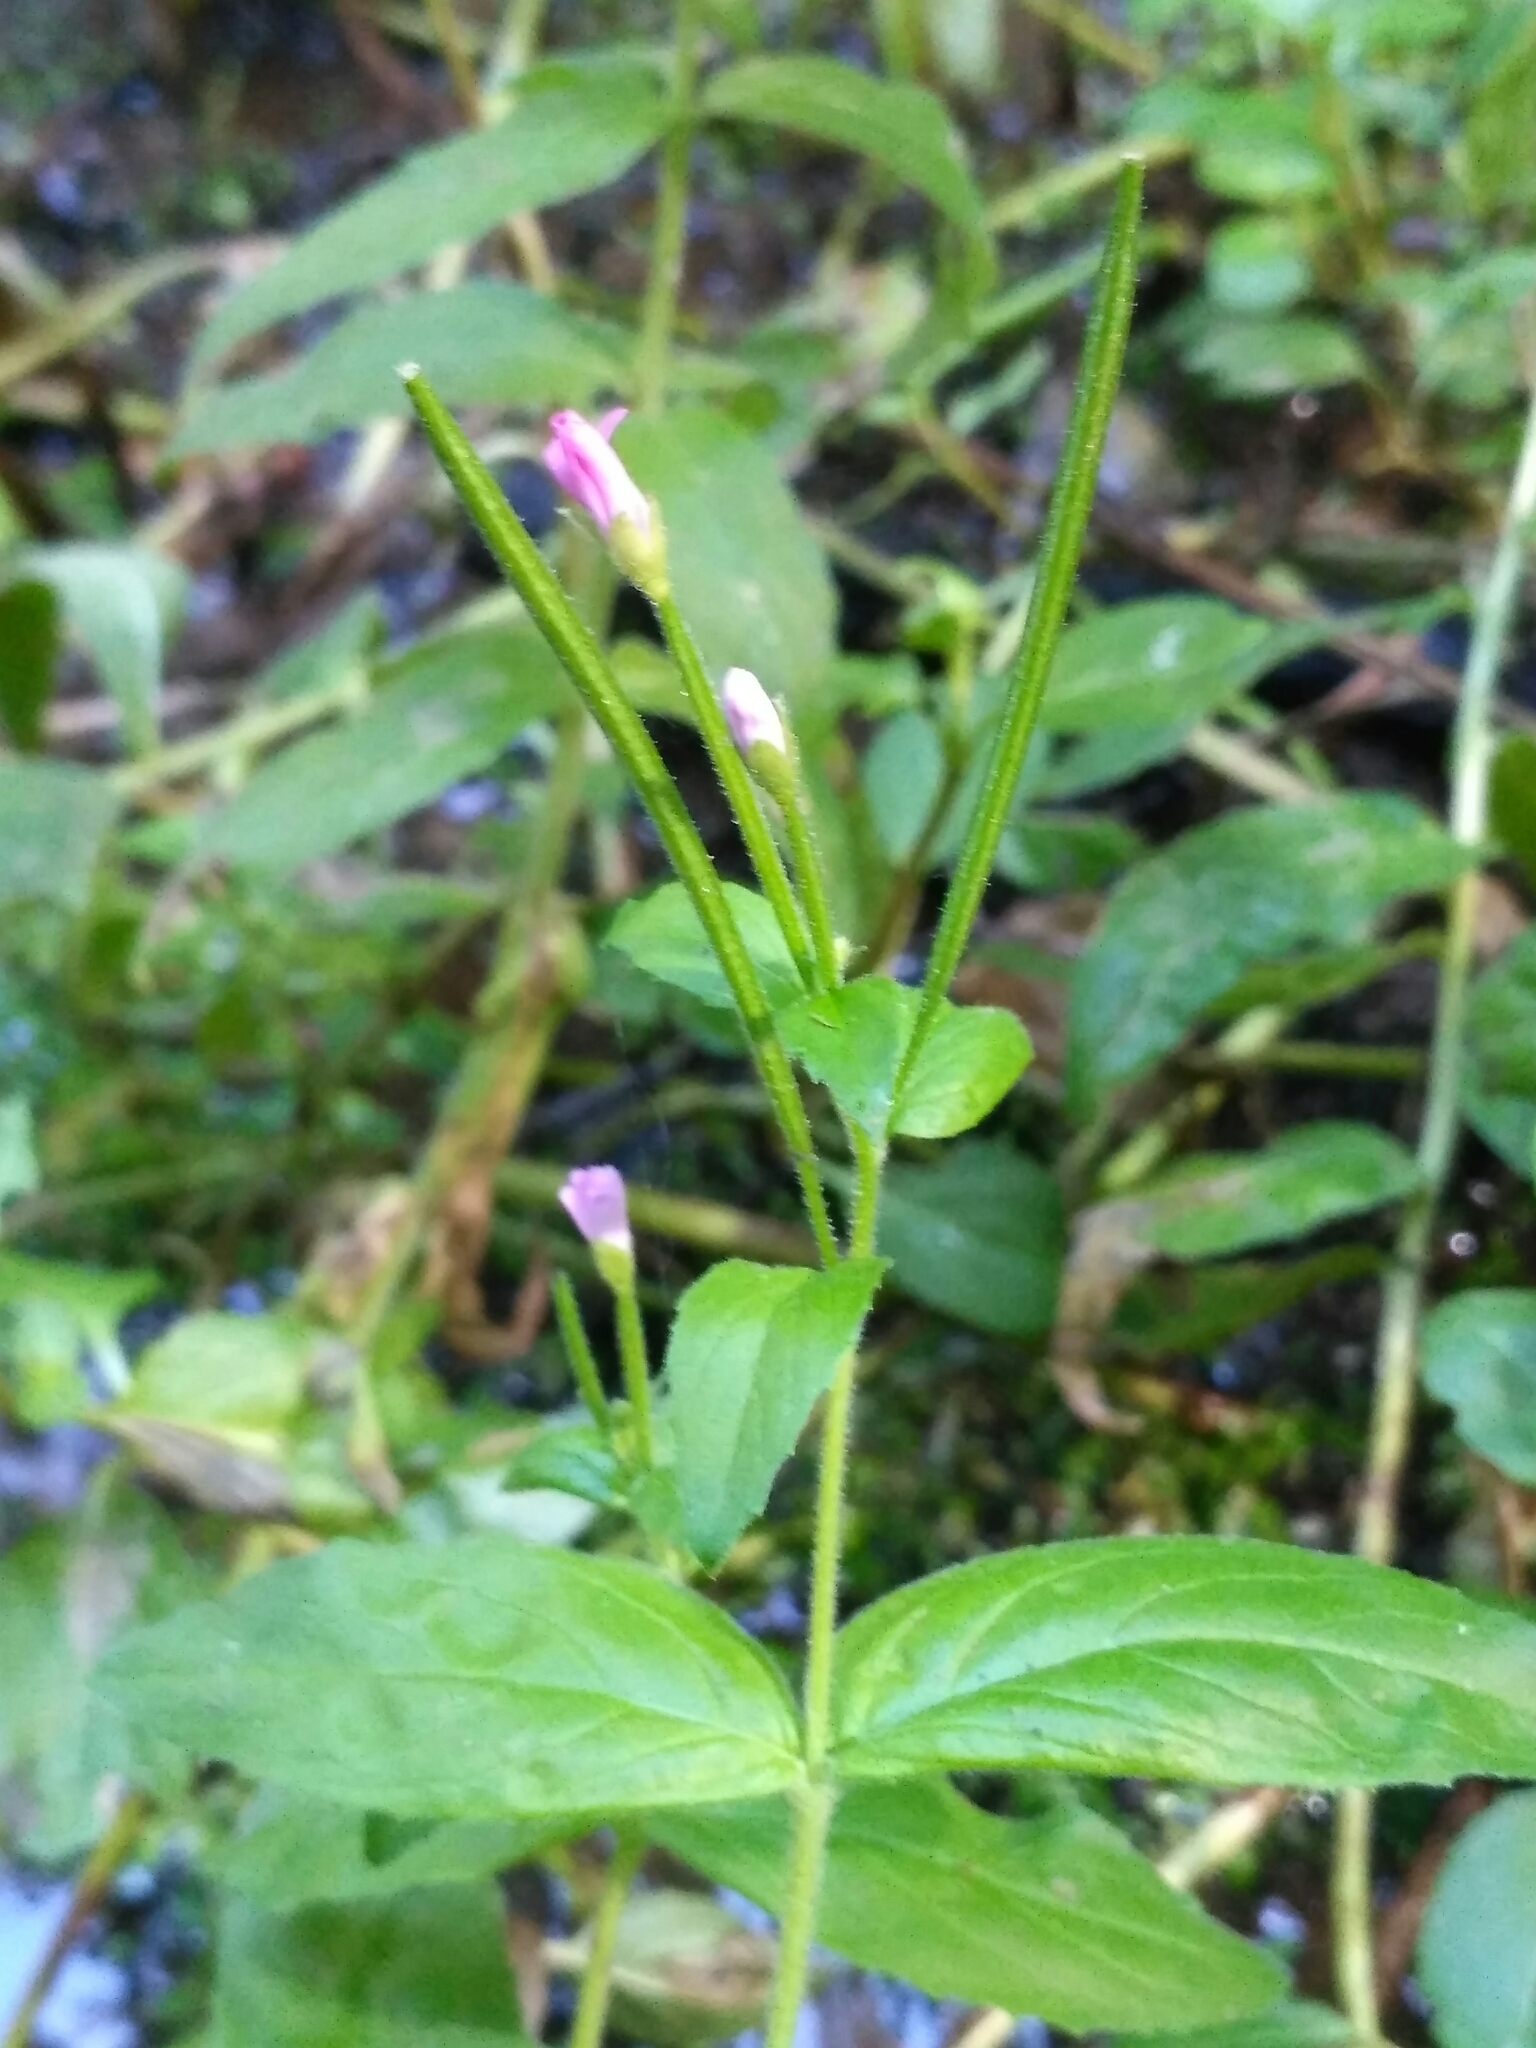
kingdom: Plantae
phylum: Tracheophyta
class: Magnoliopsida
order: Myrtales
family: Onagraceae
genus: Epilobium
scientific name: Epilobium parviflorum
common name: Hoary willowherb
